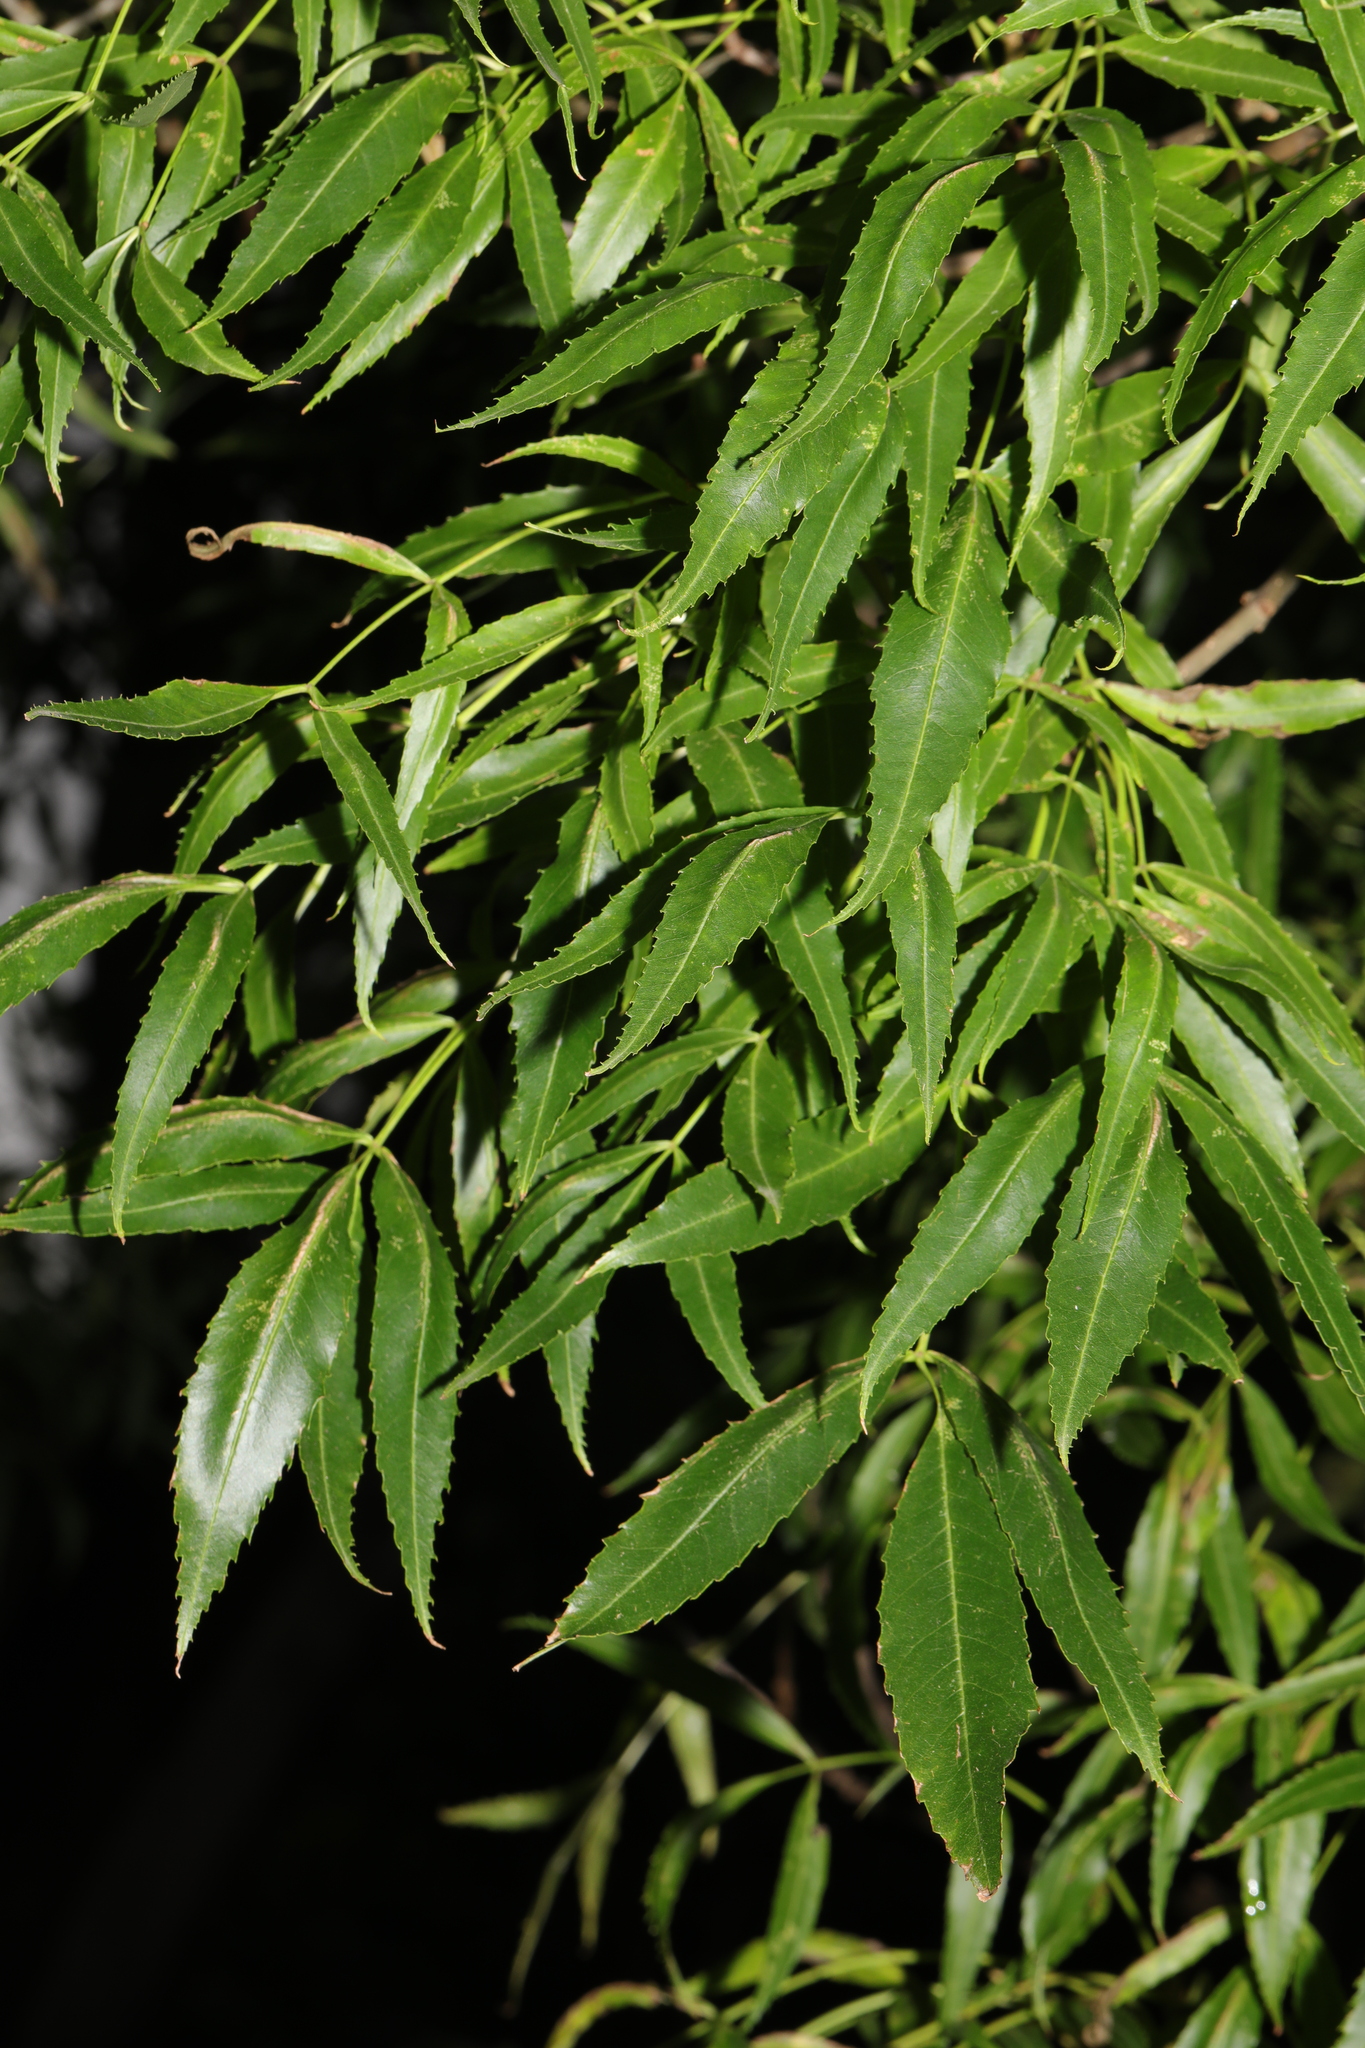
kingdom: Plantae
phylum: Tracheophyta
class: Magnoliopsida
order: Lamiales
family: Oleaceae
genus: Fraxinus
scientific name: Fraxinus angustifolia
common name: Narrow-leafed ash
